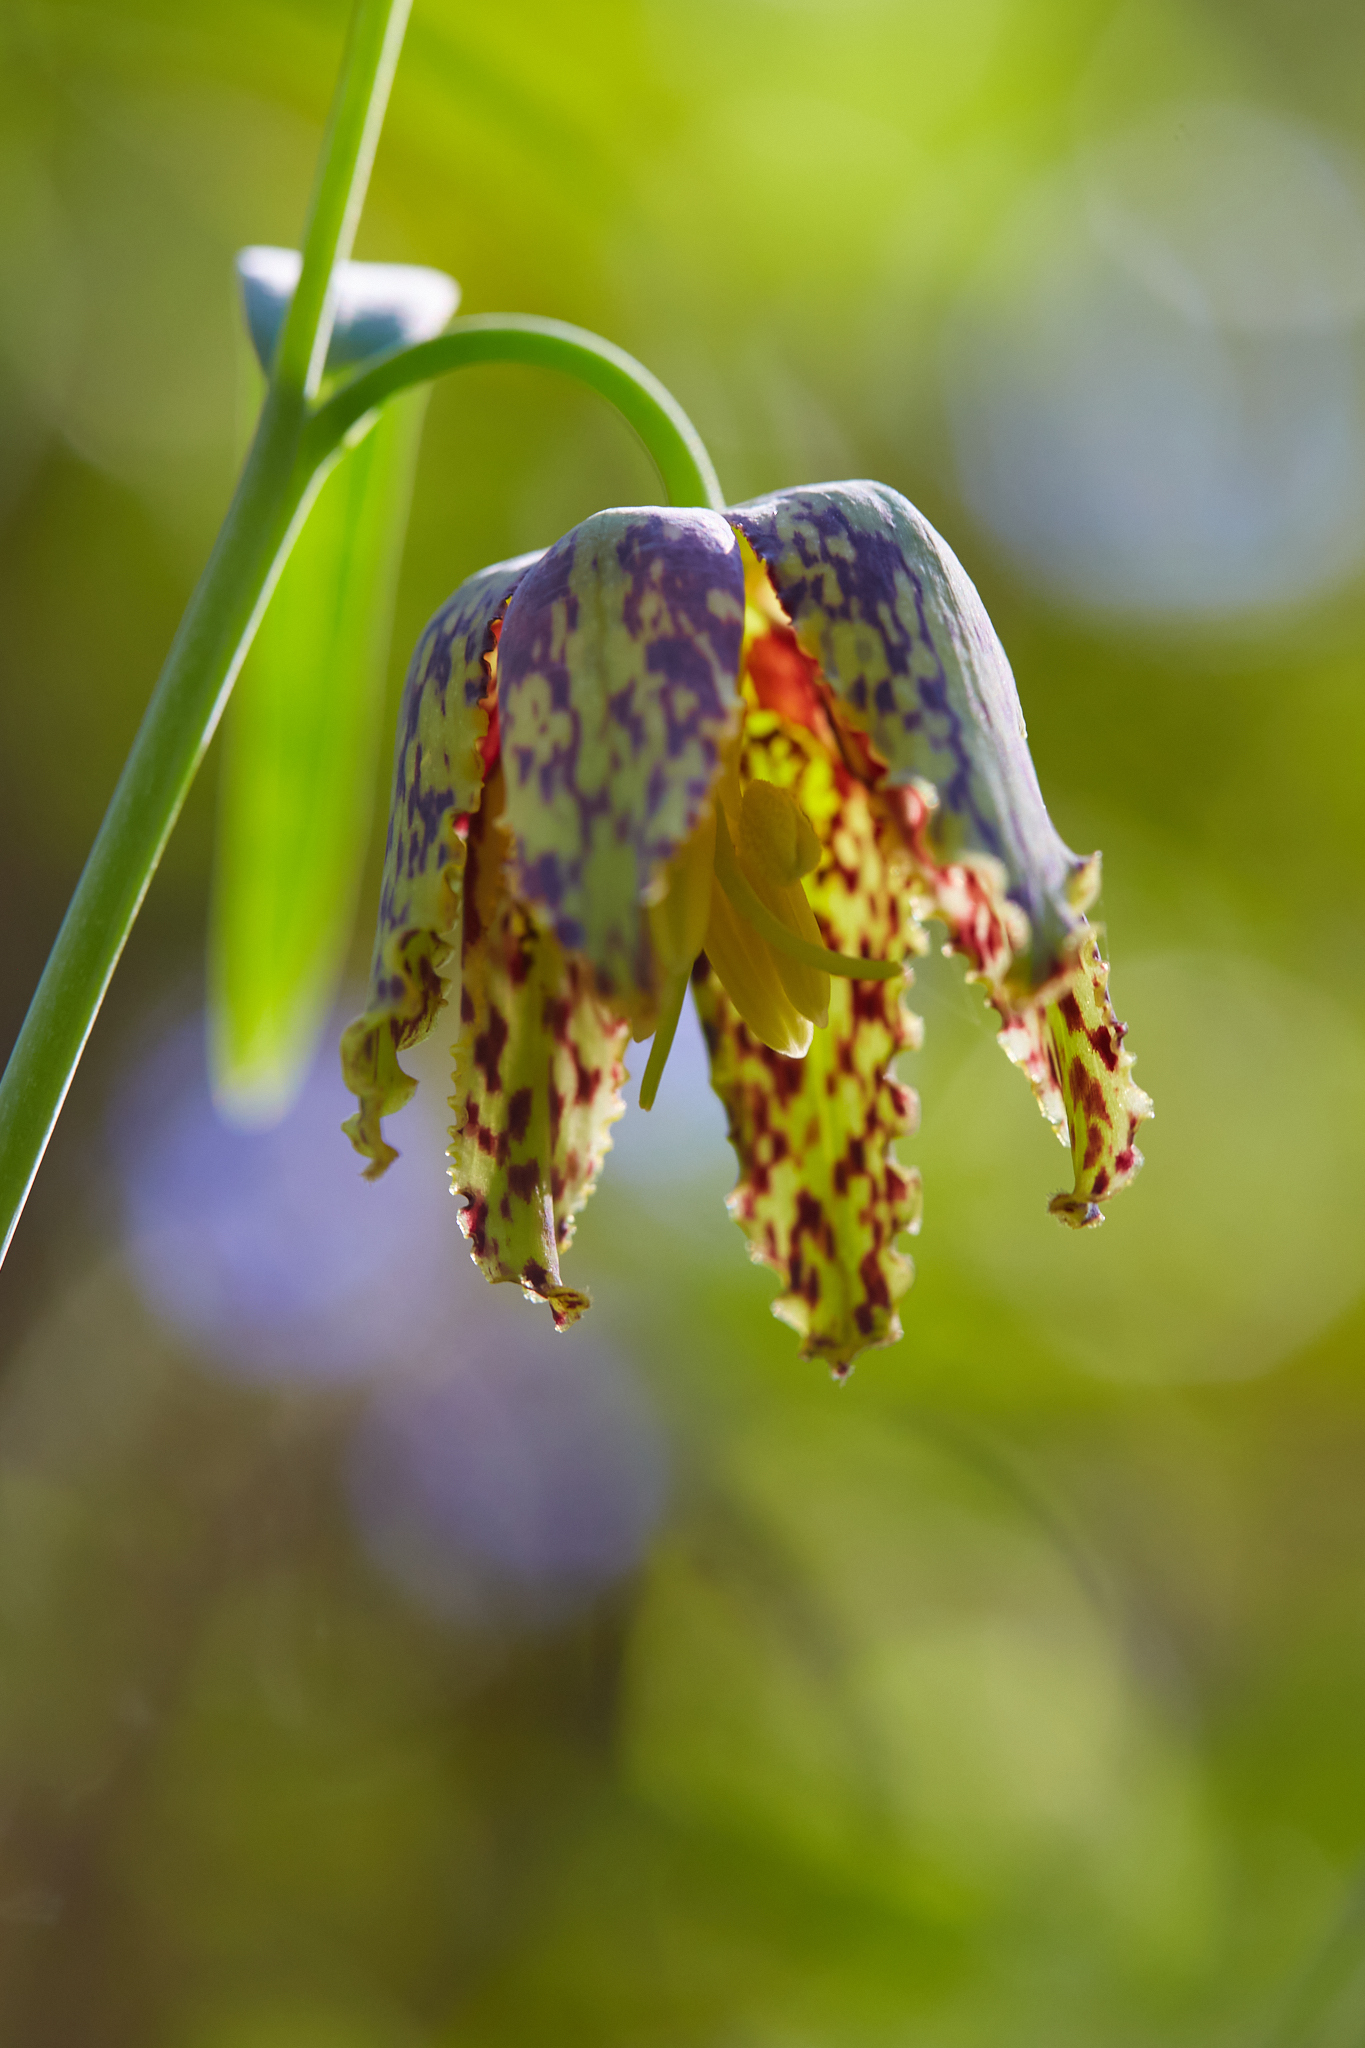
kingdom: Plantae
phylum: Tracheophyta
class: Liliopsida
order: Liliales
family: Liliaceae
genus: Fritillaria
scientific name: Fritillaria affinis
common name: Ojai fritillary
